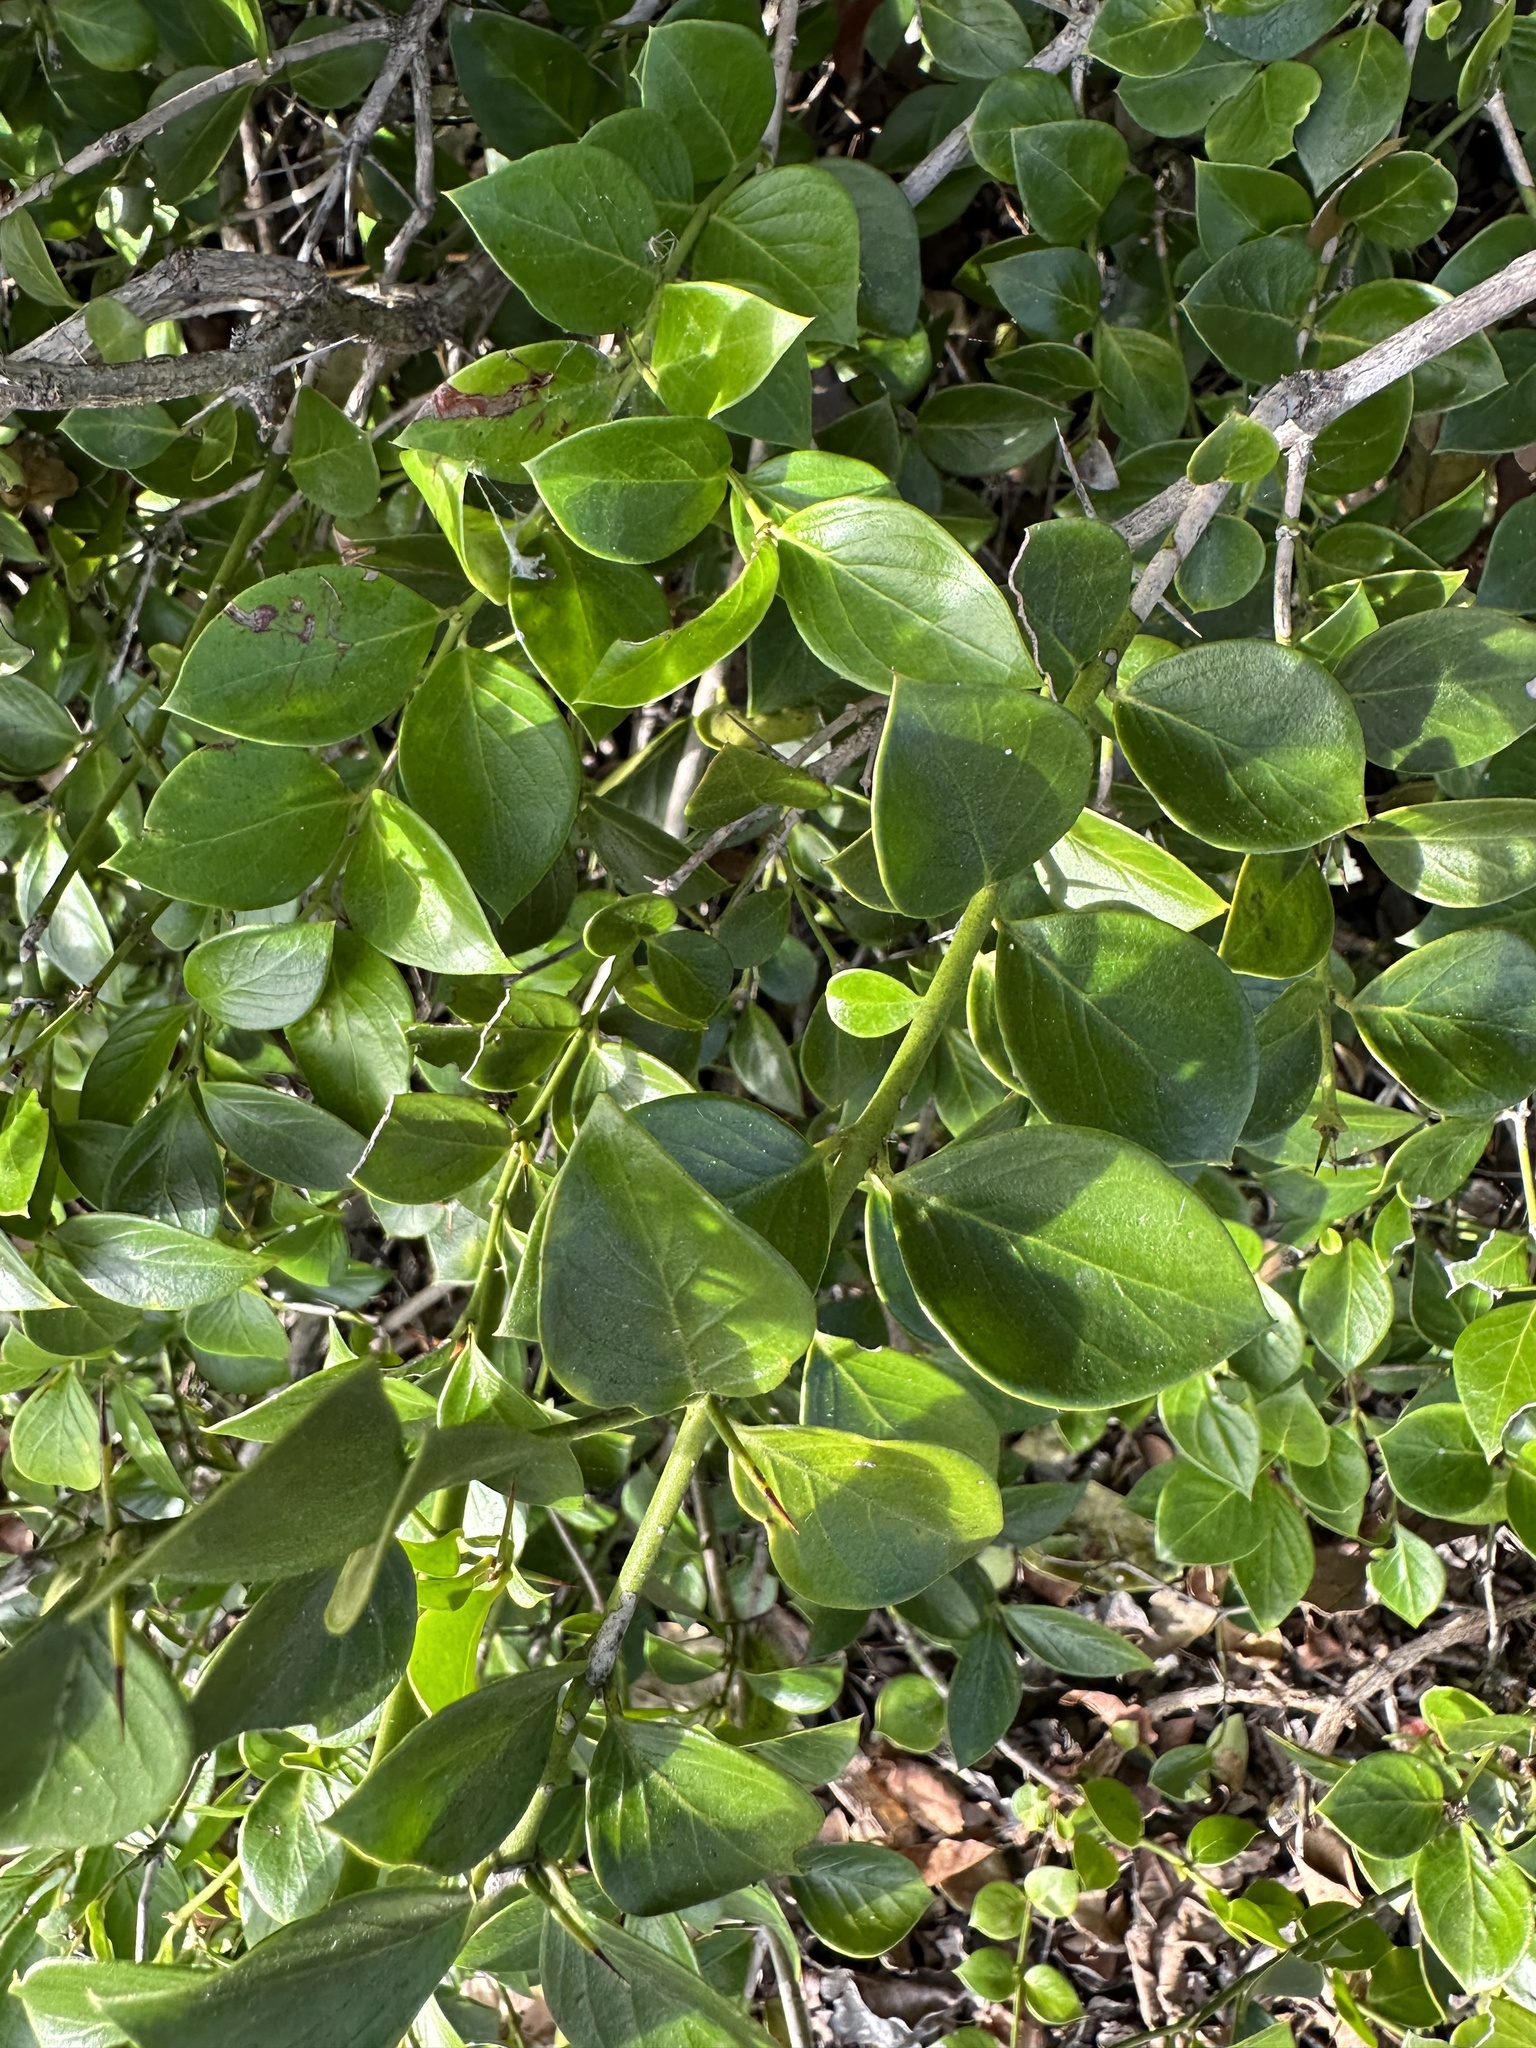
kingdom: Plantae
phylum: Tracheophyta
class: Magnoliopsida
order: Gentianales
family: Apocynaceae
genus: Carissa
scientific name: Carissa ovata
